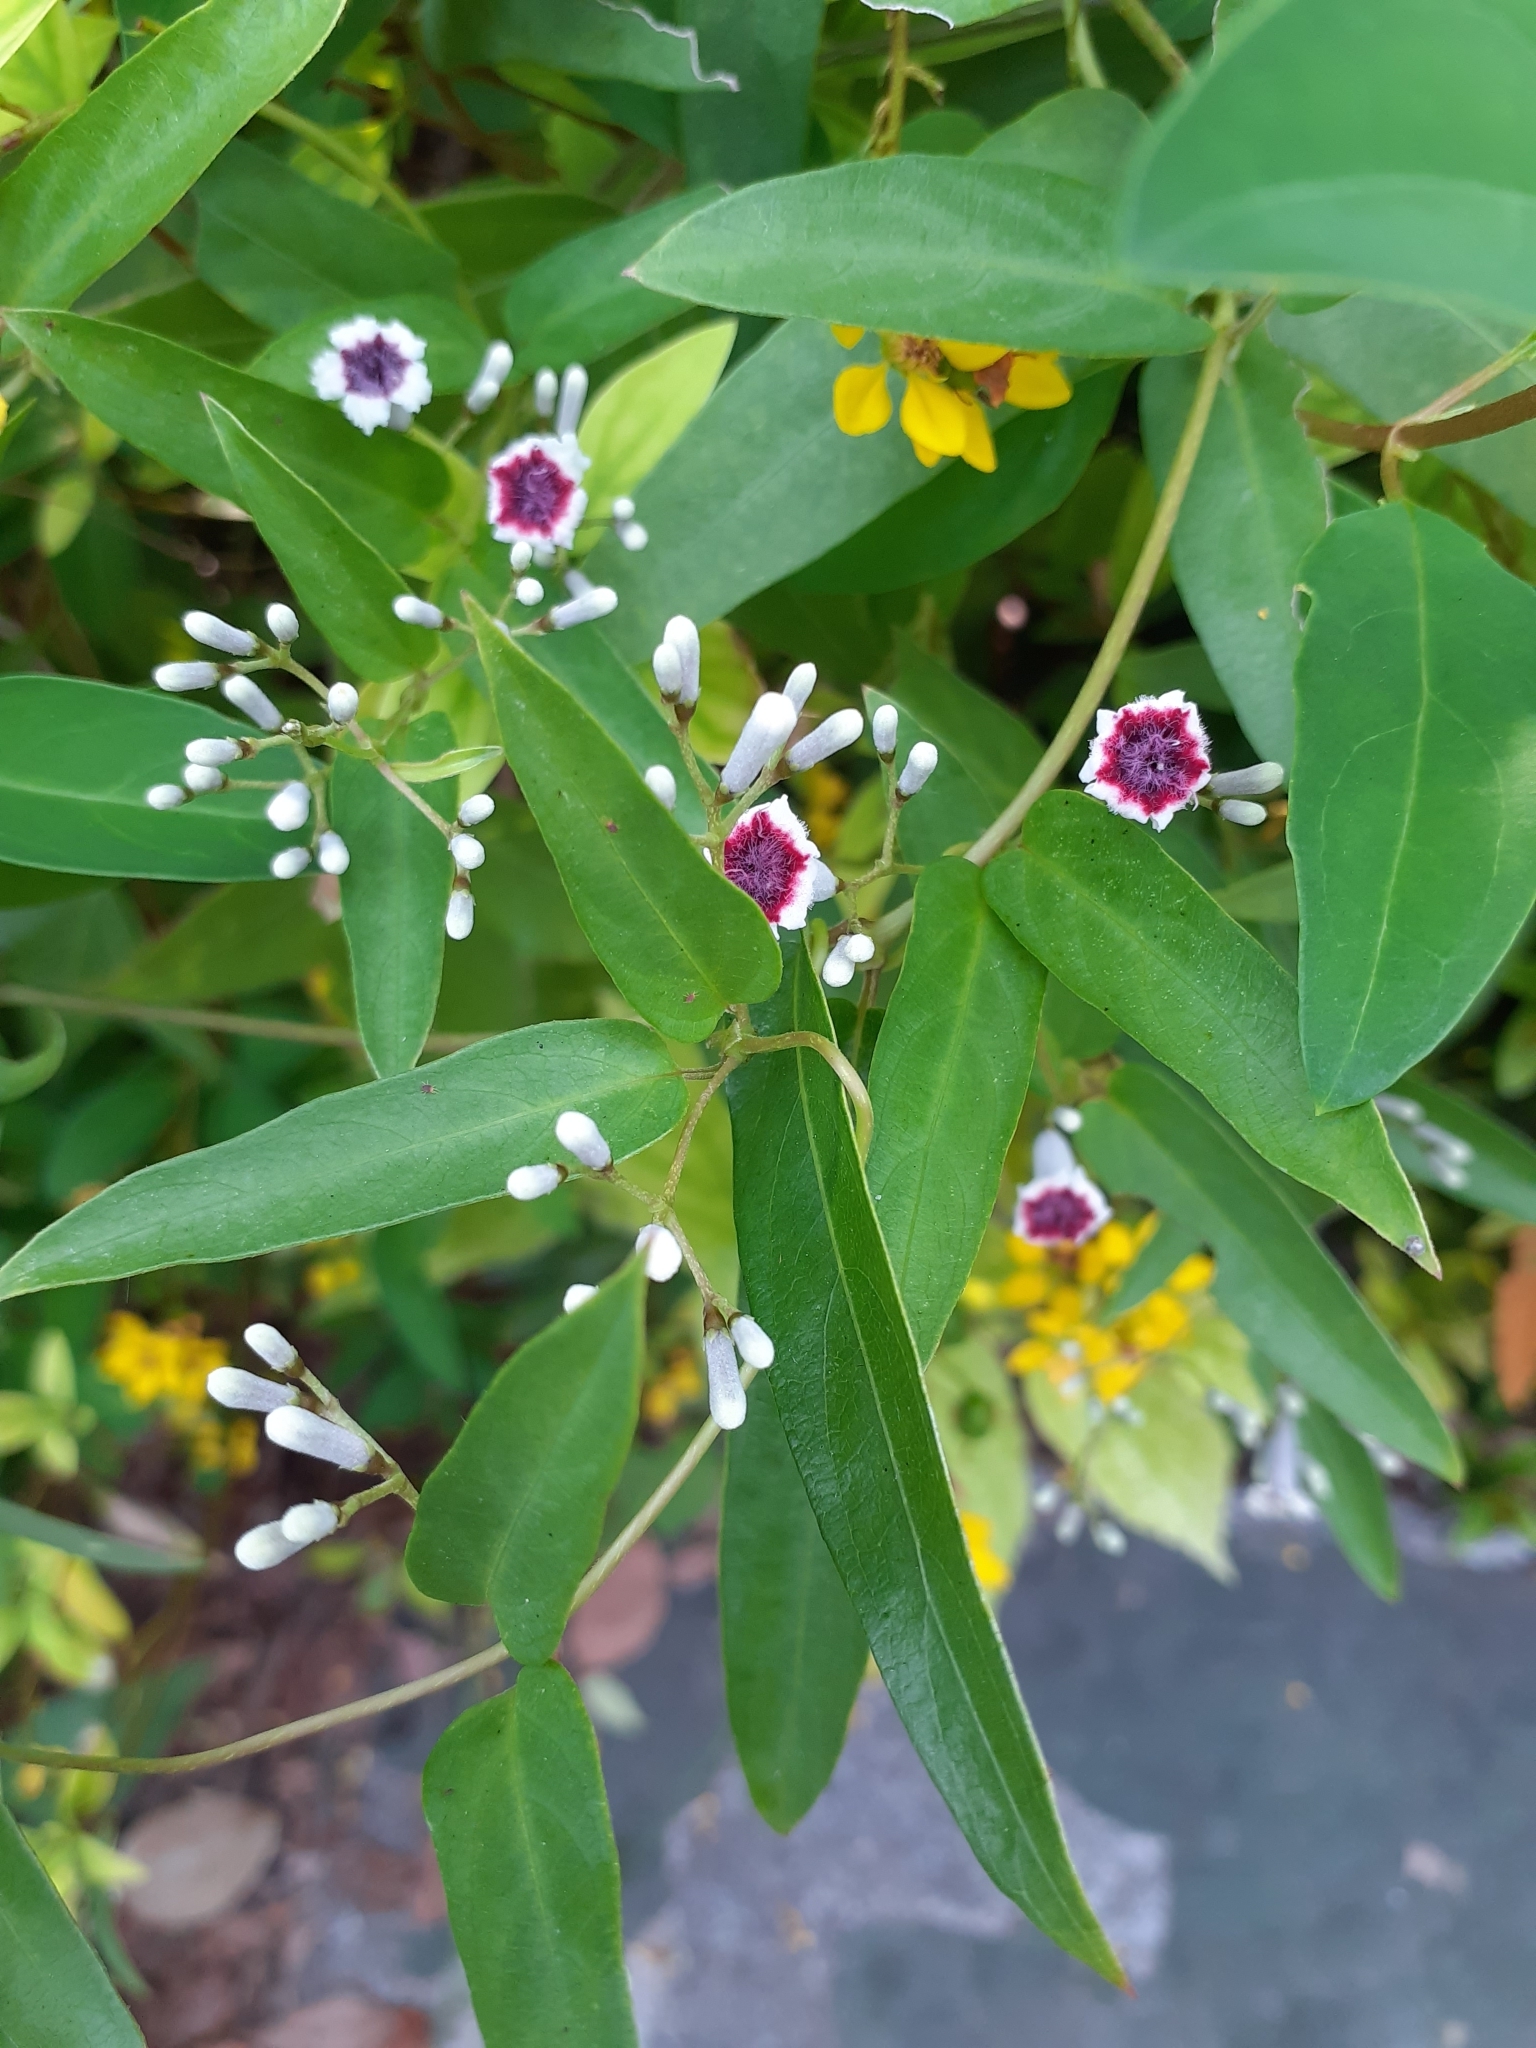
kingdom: Plantae
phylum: Tracheophyta
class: Magnoliopsida
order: Gentianales
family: Rubiaceae
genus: Paederia
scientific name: Paederia foetida
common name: Stinkvine
